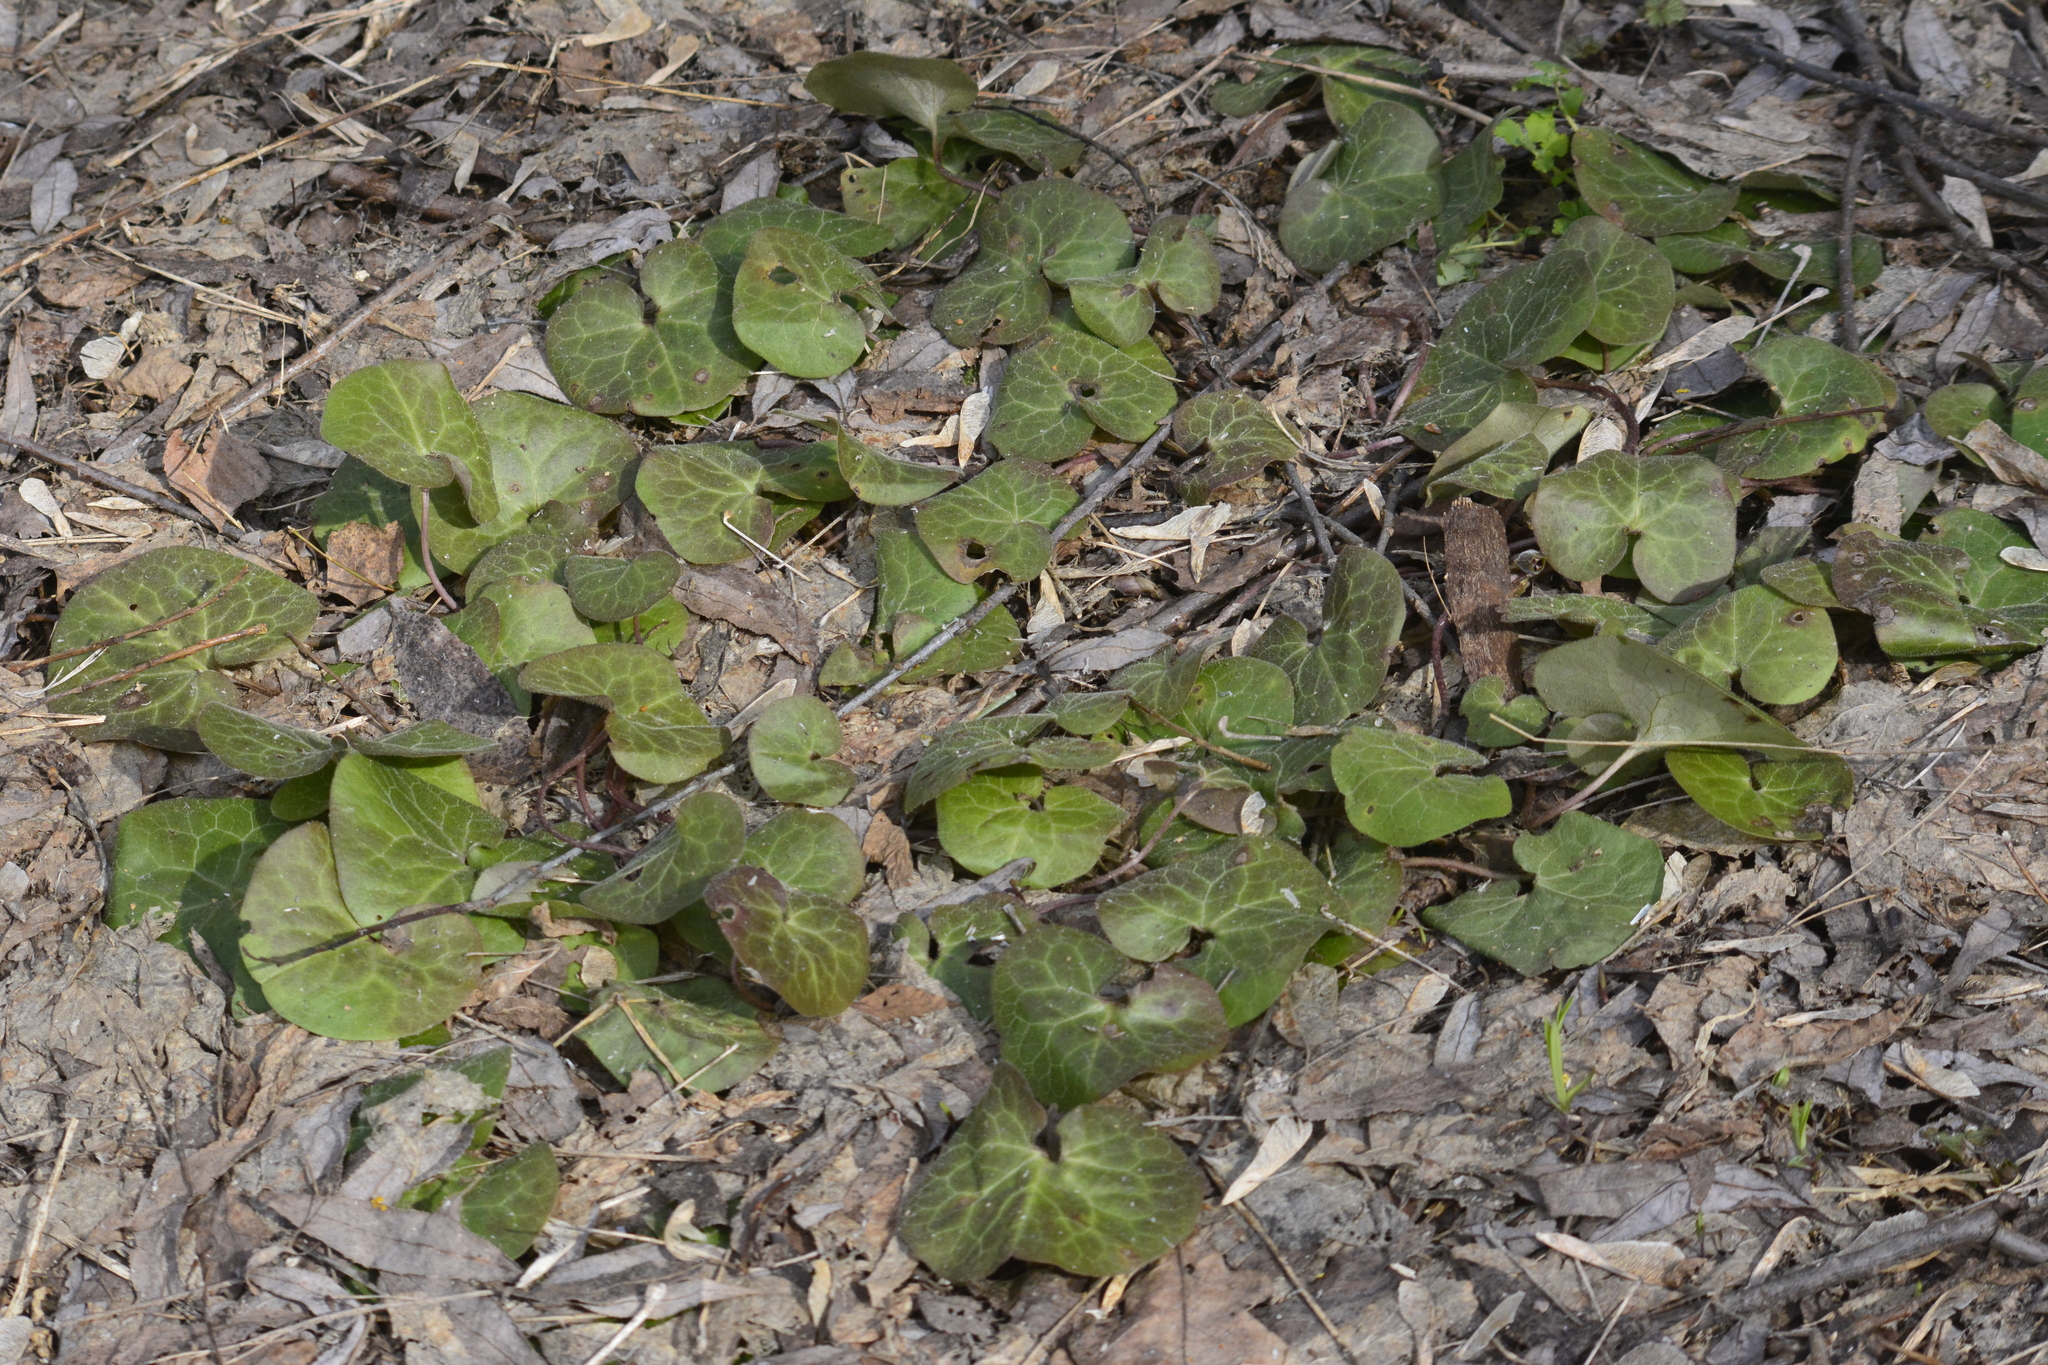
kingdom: Plantae
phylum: Tracheophyta
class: Magnoliopsida
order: Piperales
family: Aristolochiaceae
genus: Asarum
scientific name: Asarum europaeum
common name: Asarabacca
